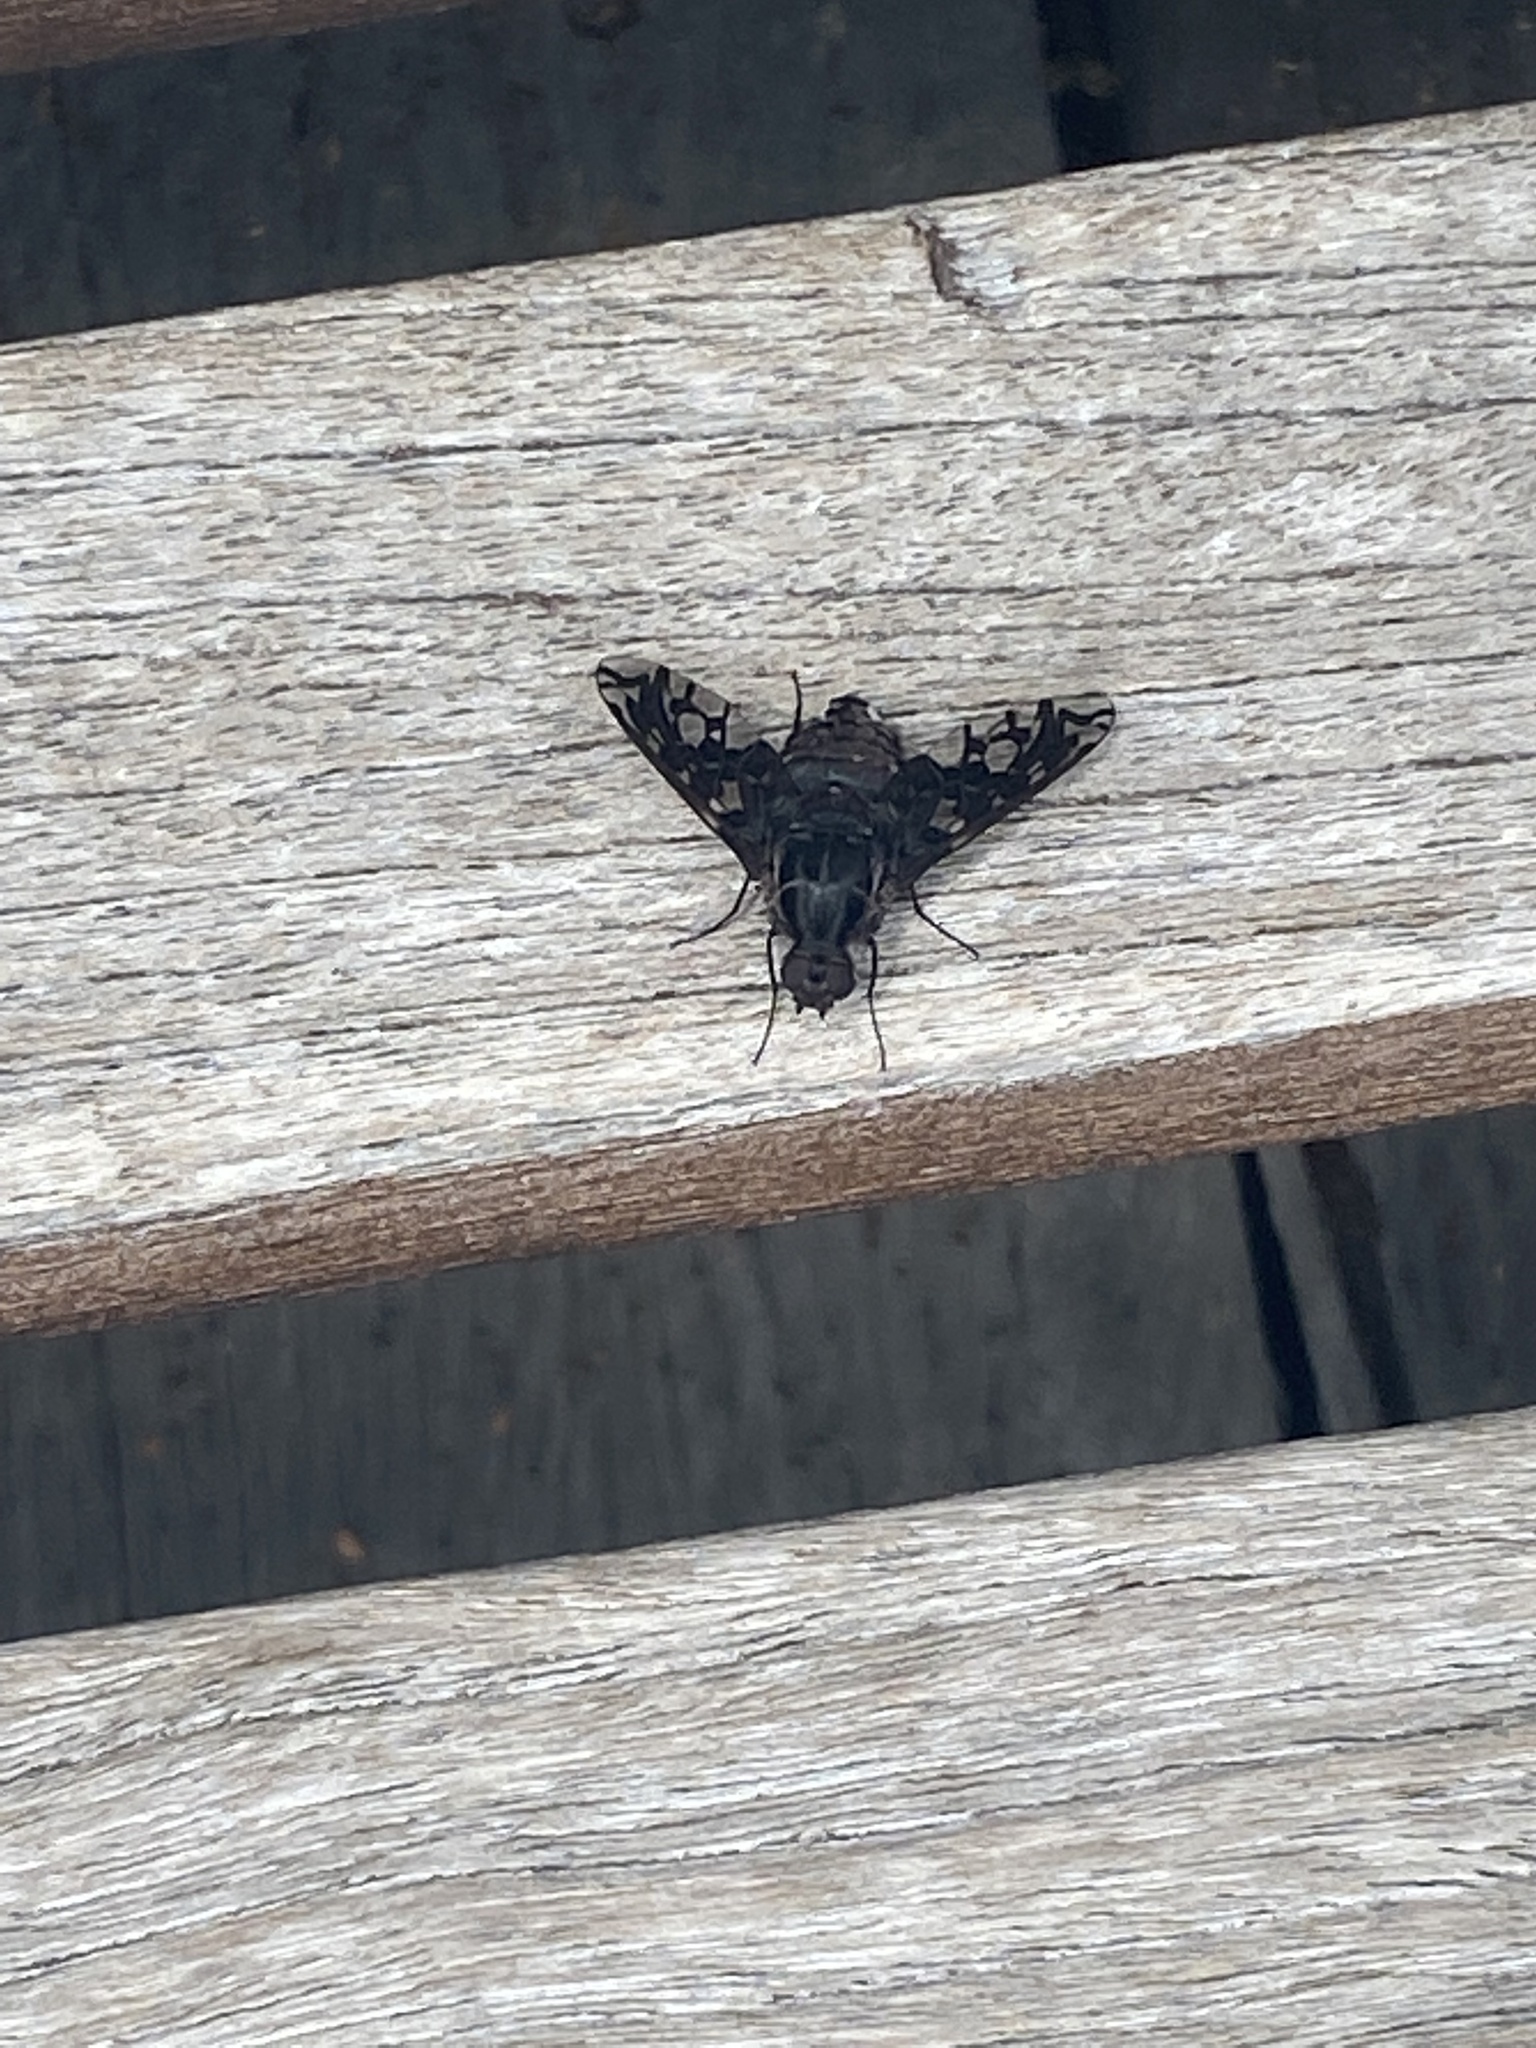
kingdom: Animalia
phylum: Arthropoda
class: Insecta
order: Diptera
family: Bombyliidae
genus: Xenox
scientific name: Xenox tigrinus
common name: Tiger bee fly
